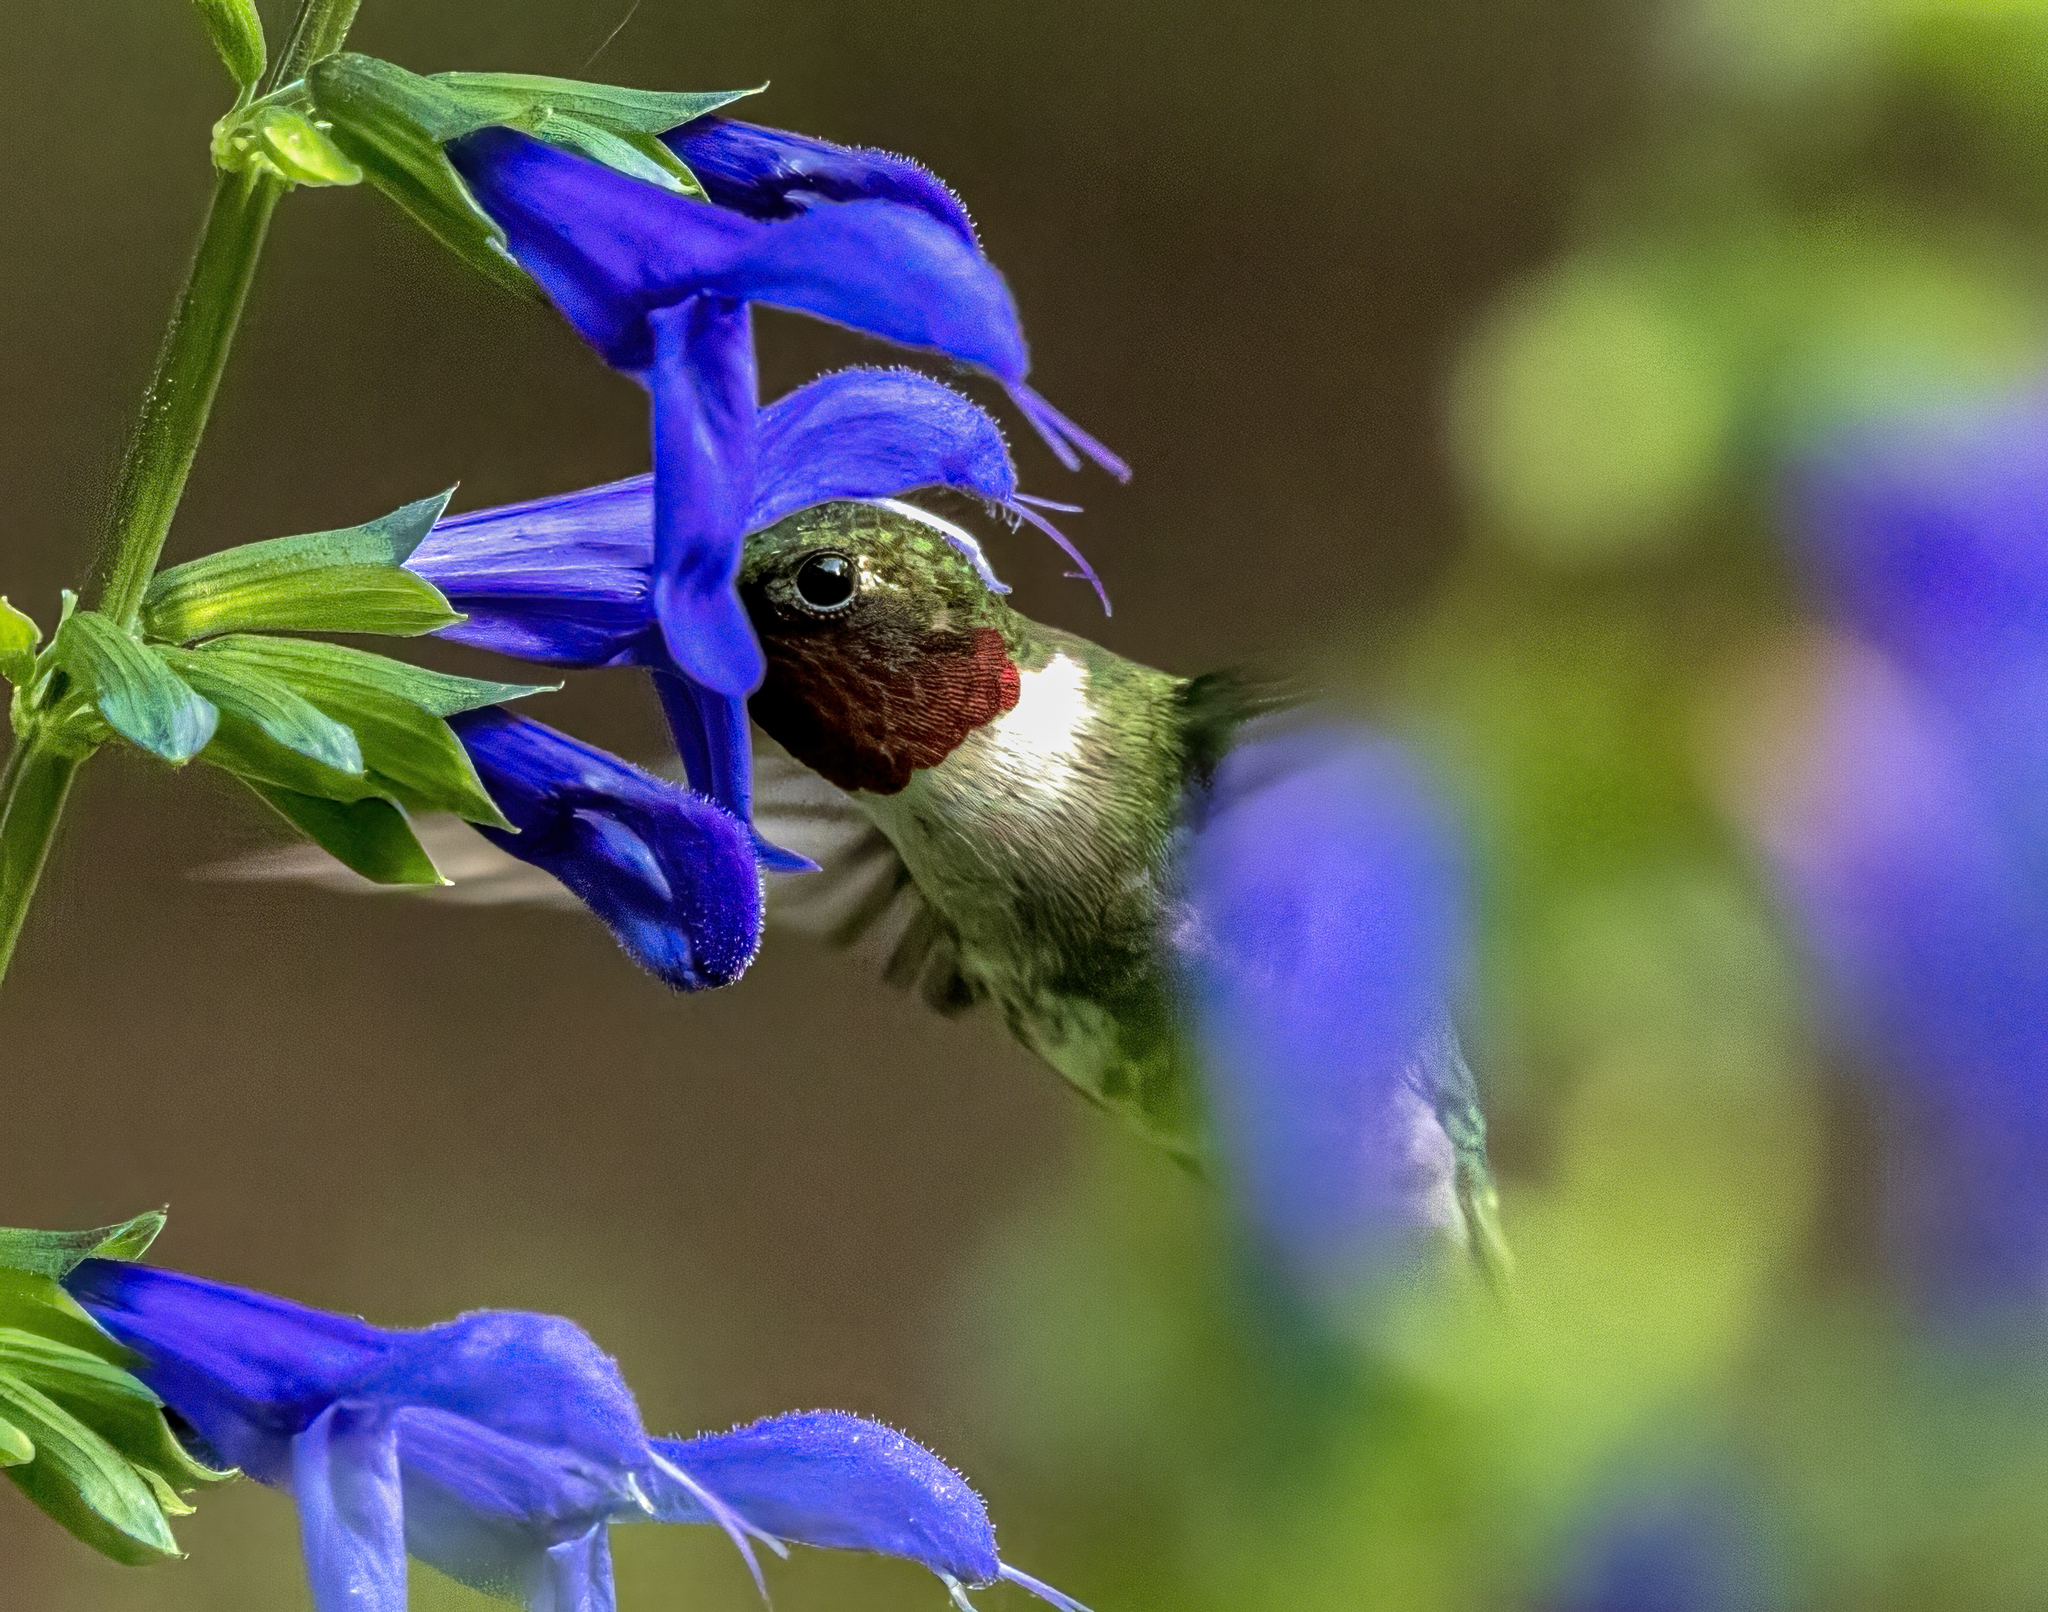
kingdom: Animalia
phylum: Chordata
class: Aves
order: Apodiformes
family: Trochilidae
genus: Archilochus
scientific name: Archilochus colubris
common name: Ruby-throated hummingbird
